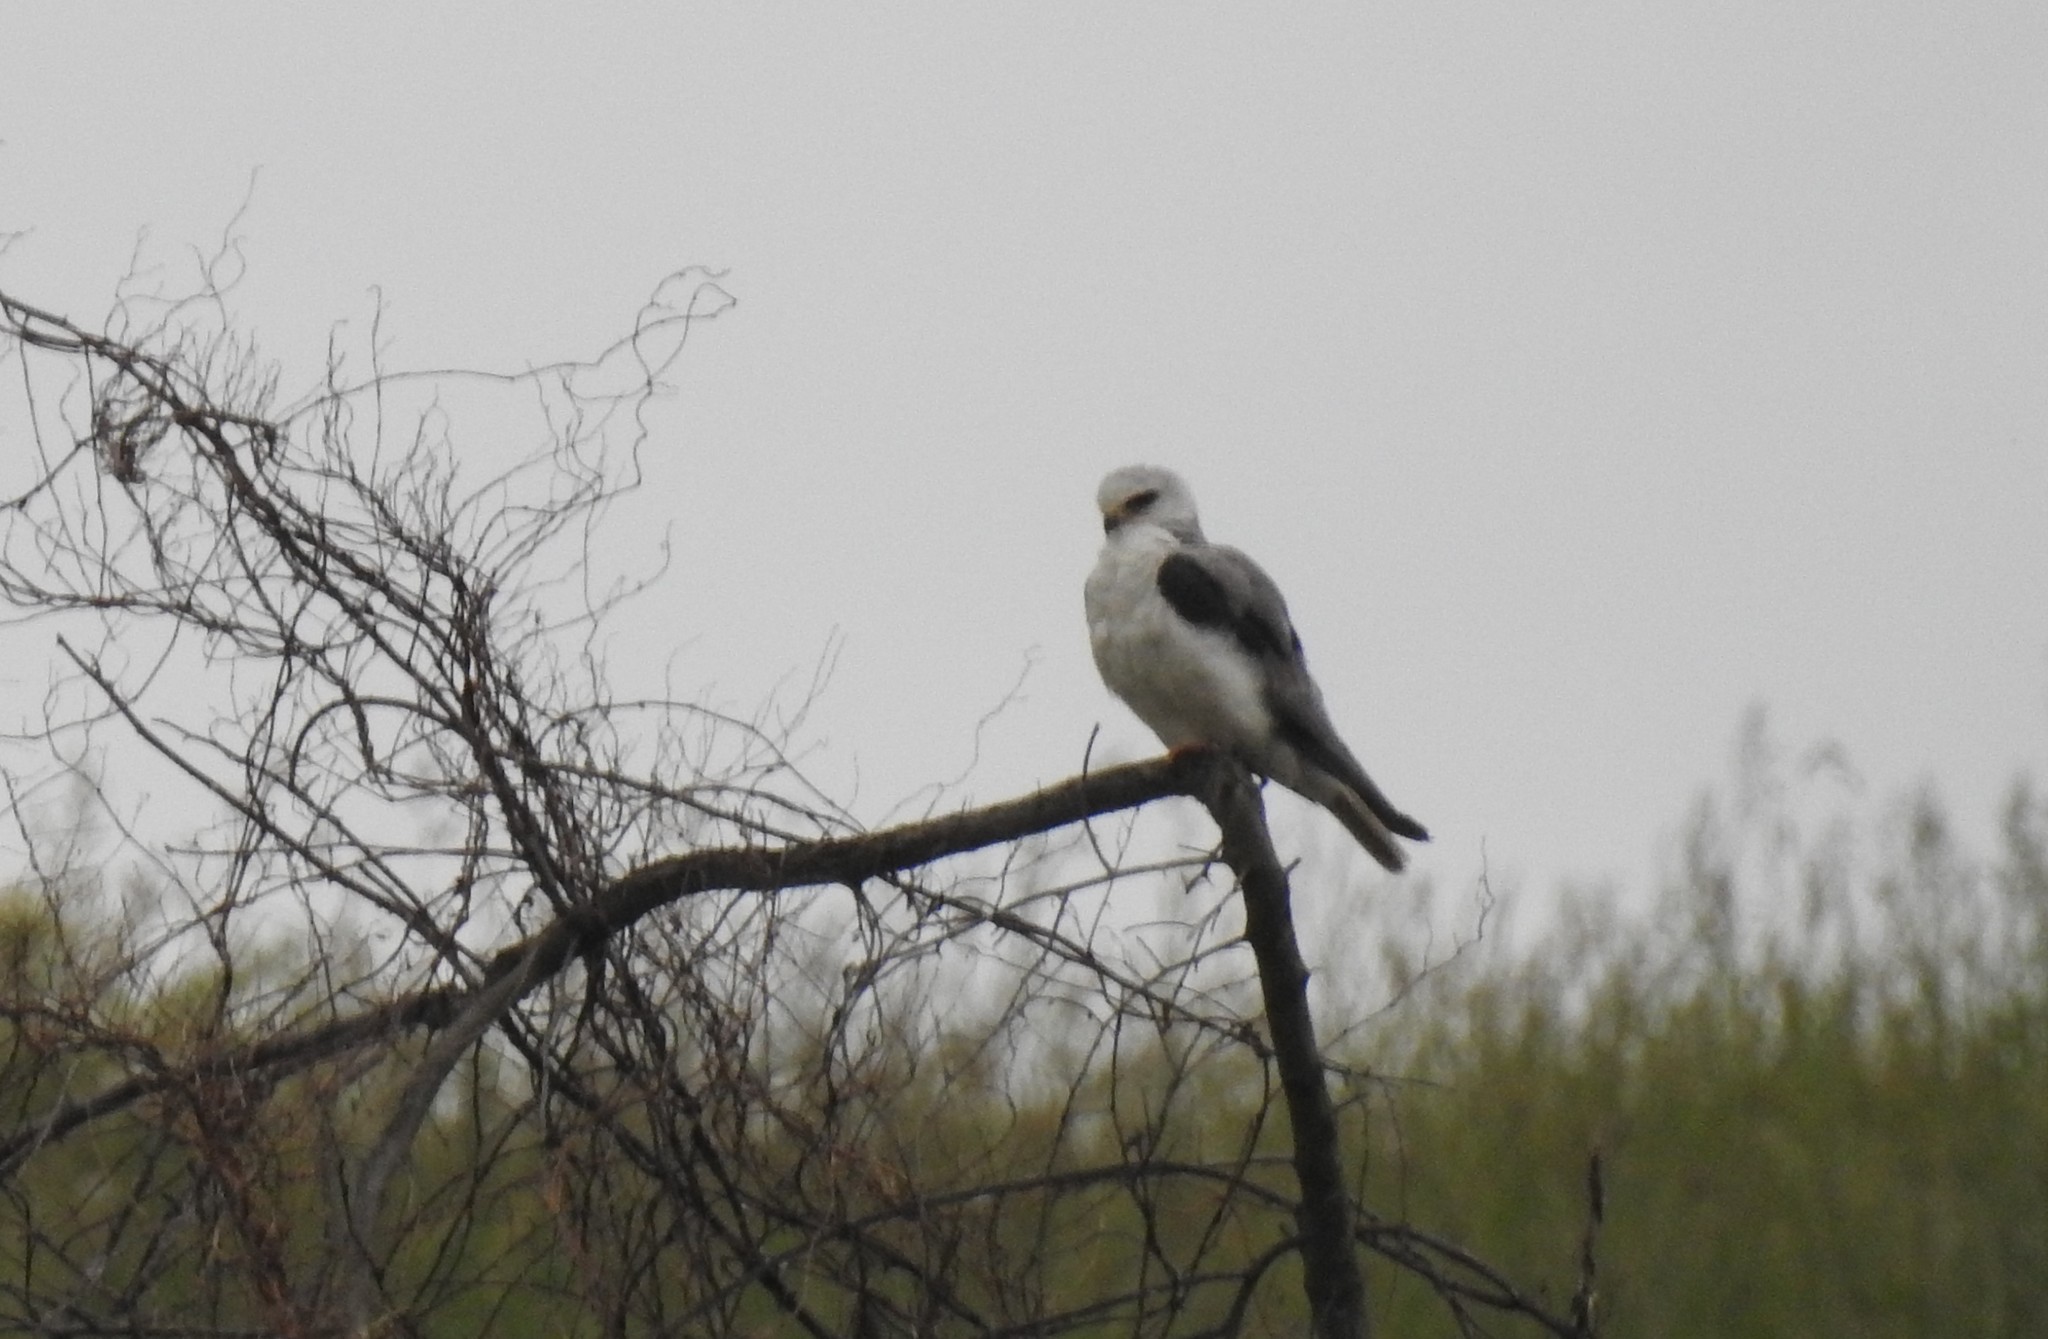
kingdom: Animalia
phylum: Chordata
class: Aves
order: Accipitriformes
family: Accipitridae
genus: Elanus
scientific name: Elanus leucurus
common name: White-tailed kite
